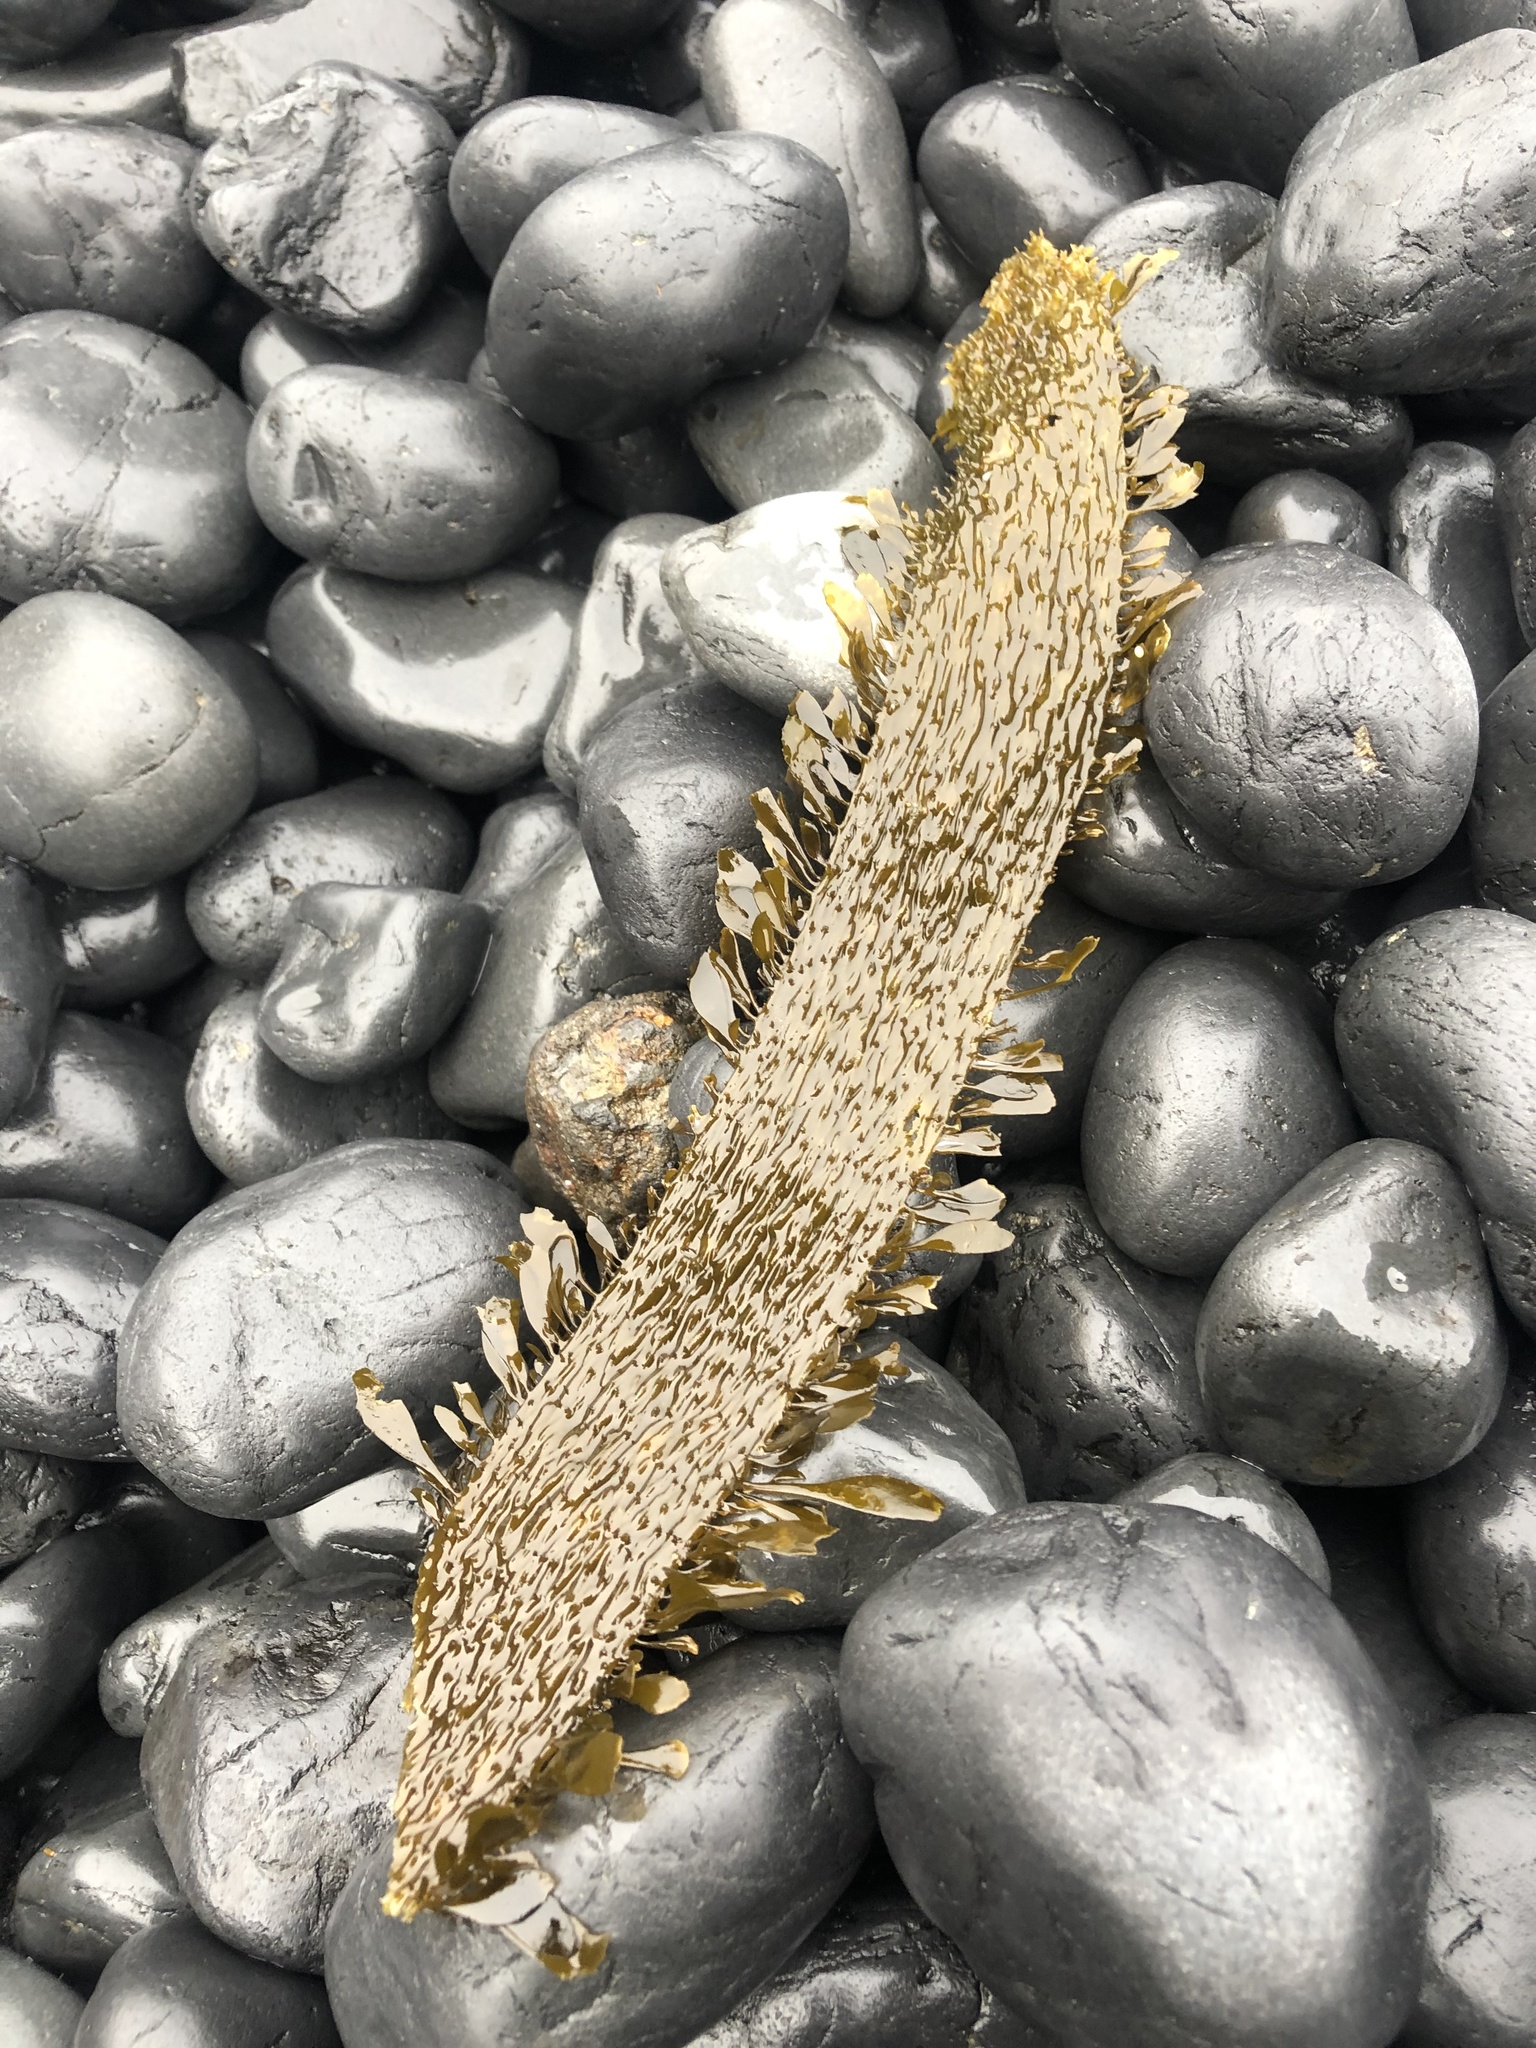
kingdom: Chromista
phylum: Ochrophyta
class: Phaeophyceae
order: Laminariales
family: Lessoniaceae
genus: Egregia
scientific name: Egregia menziesii
